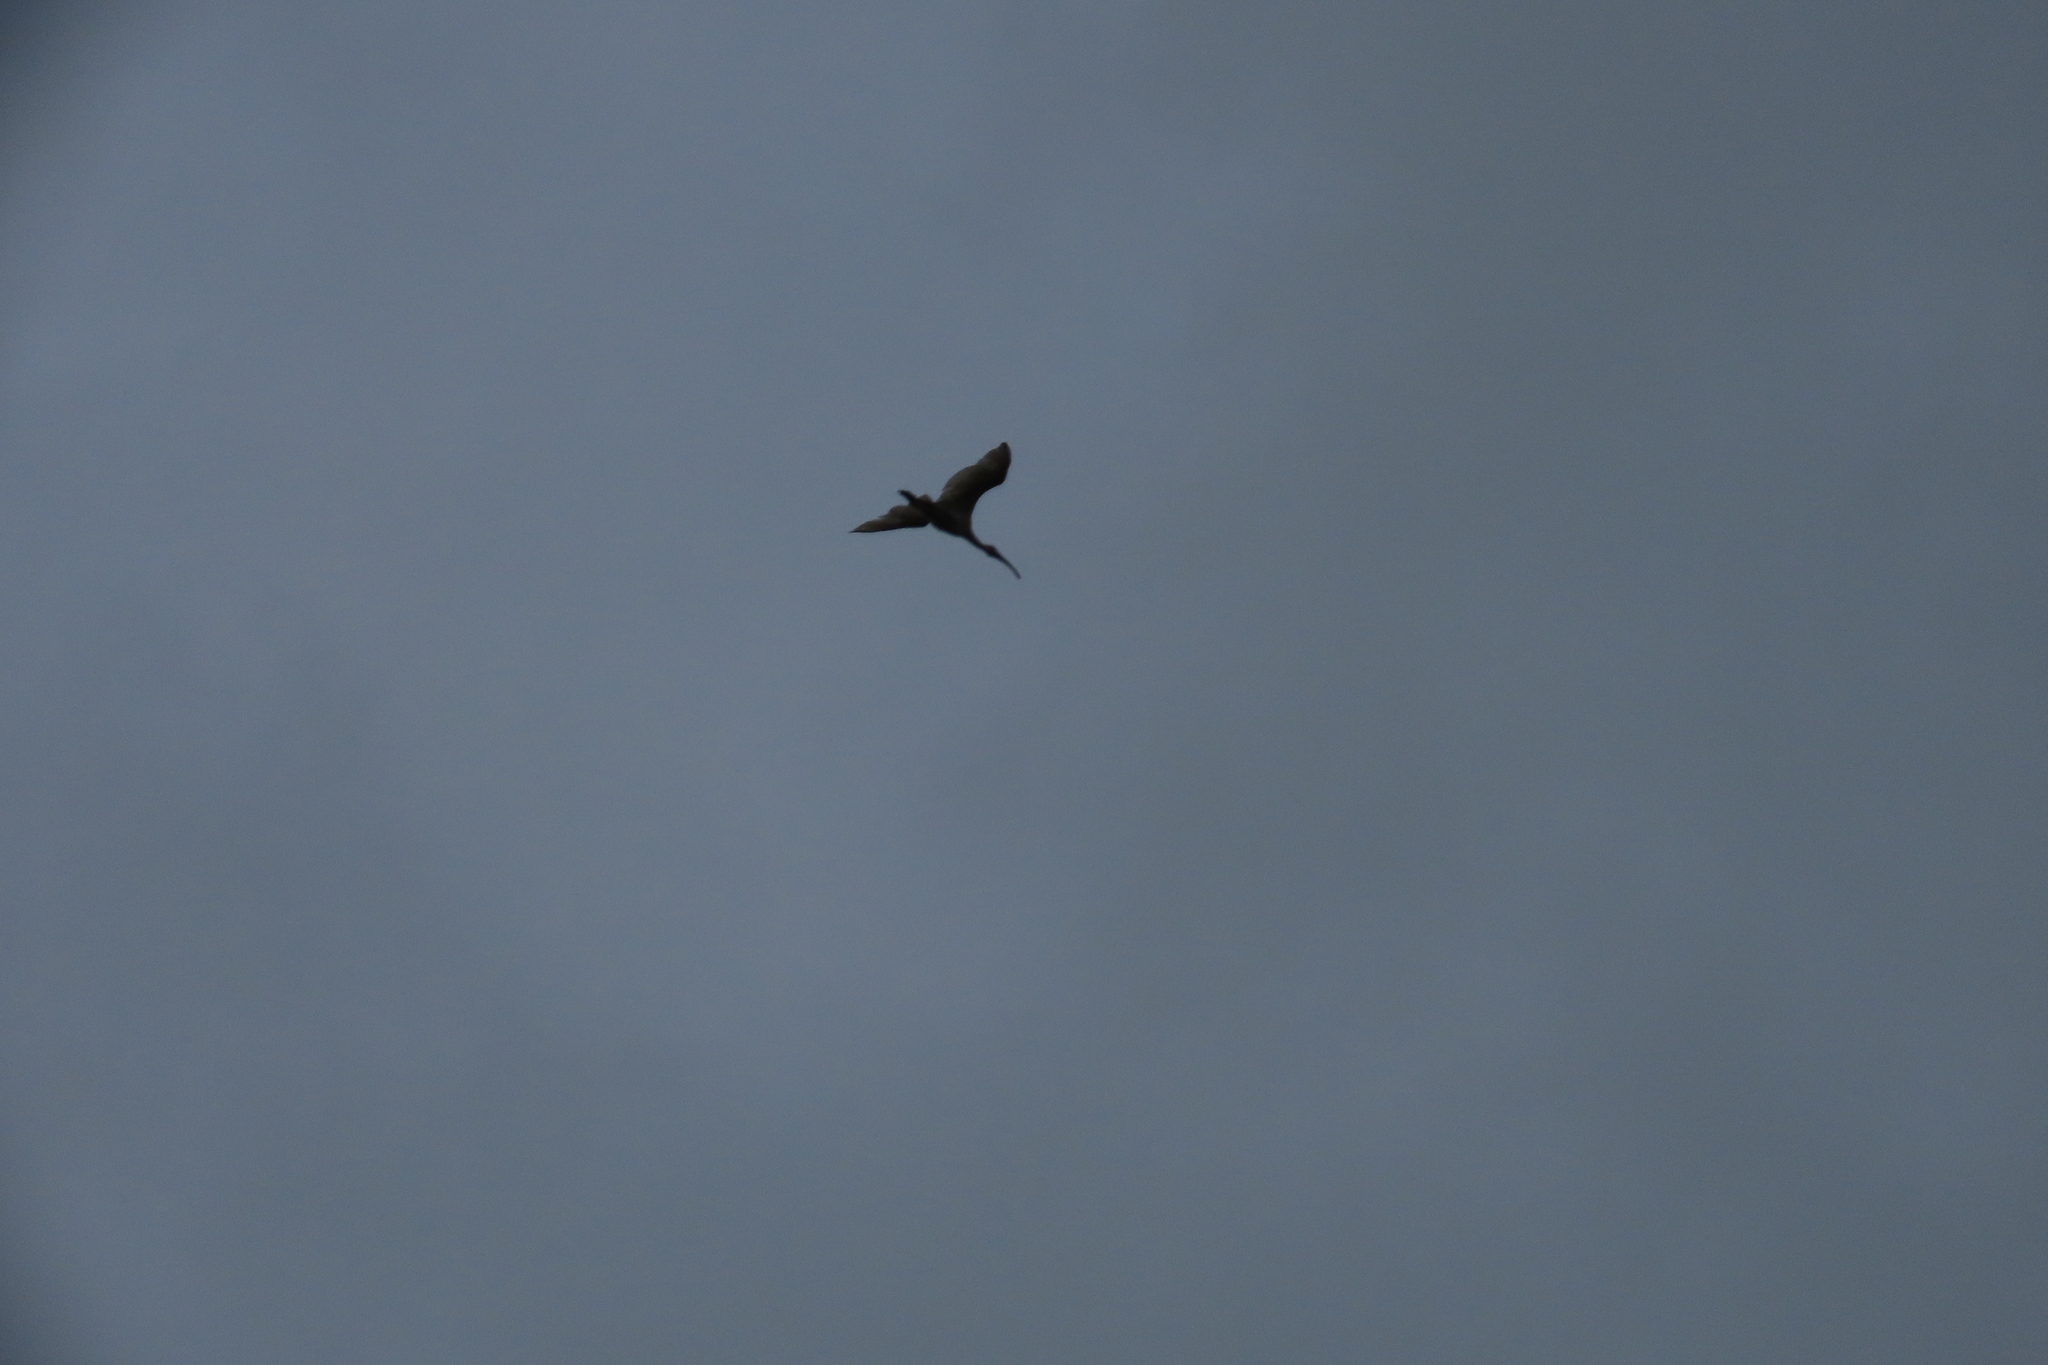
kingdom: Animalia
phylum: Chordata
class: Aves
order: Pelecaniformes
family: Threskiornithidae
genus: Threskiornis
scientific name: Threskiornis melanocephalus
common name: Black-headed ibis
